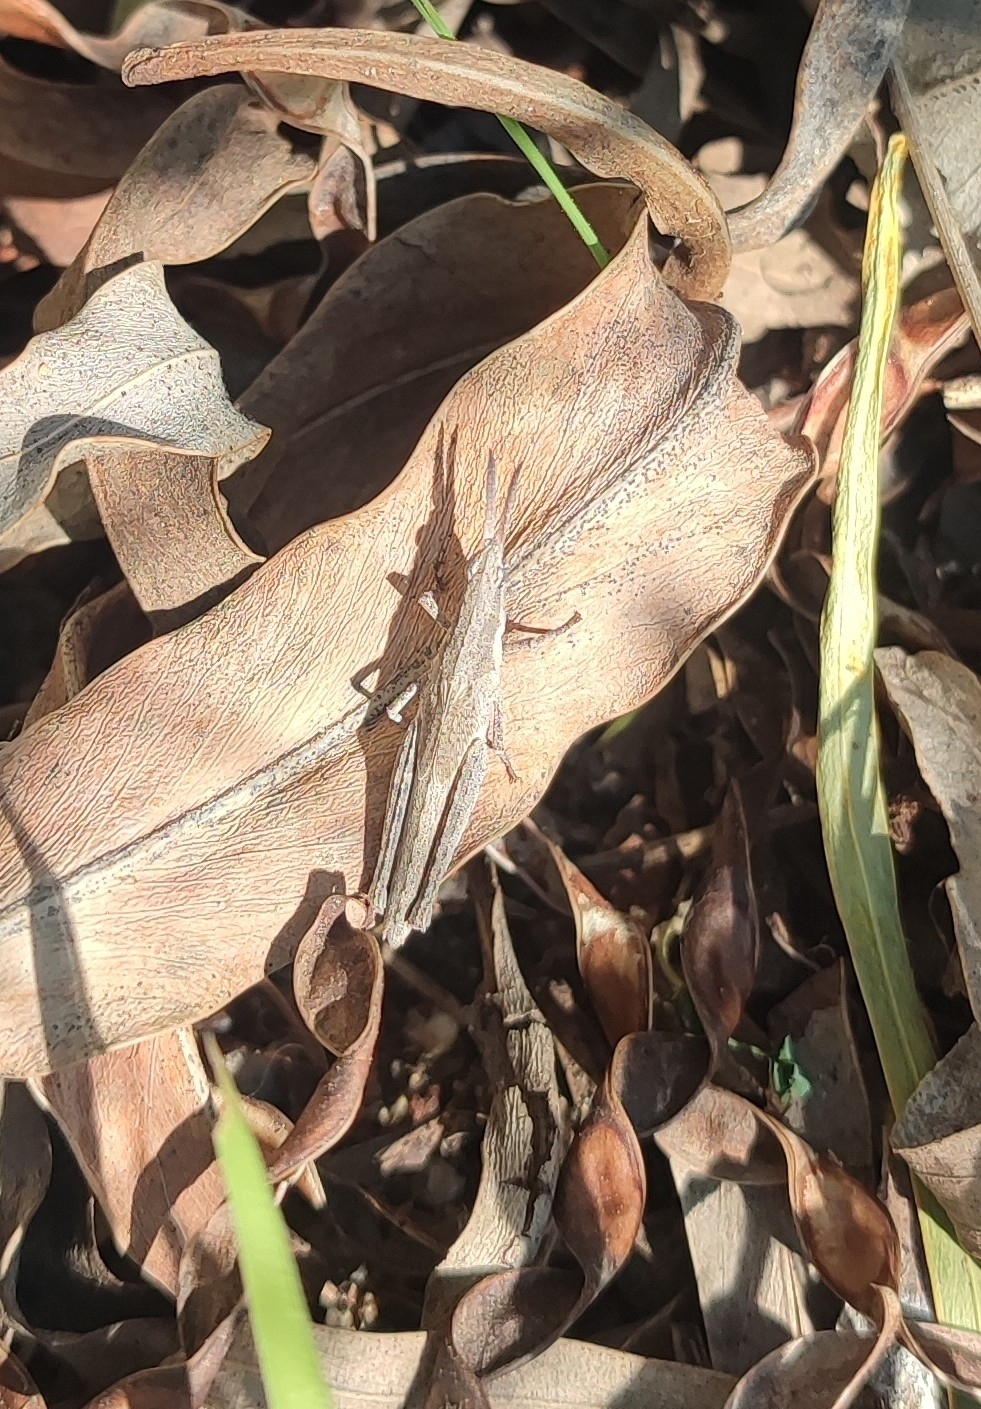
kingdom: Animalia
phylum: Arthropoda
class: Insecta
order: Orthoptera
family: Pyrgomorphidae
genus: Pyrgomorpha
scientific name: Pyrgomorpha conica
